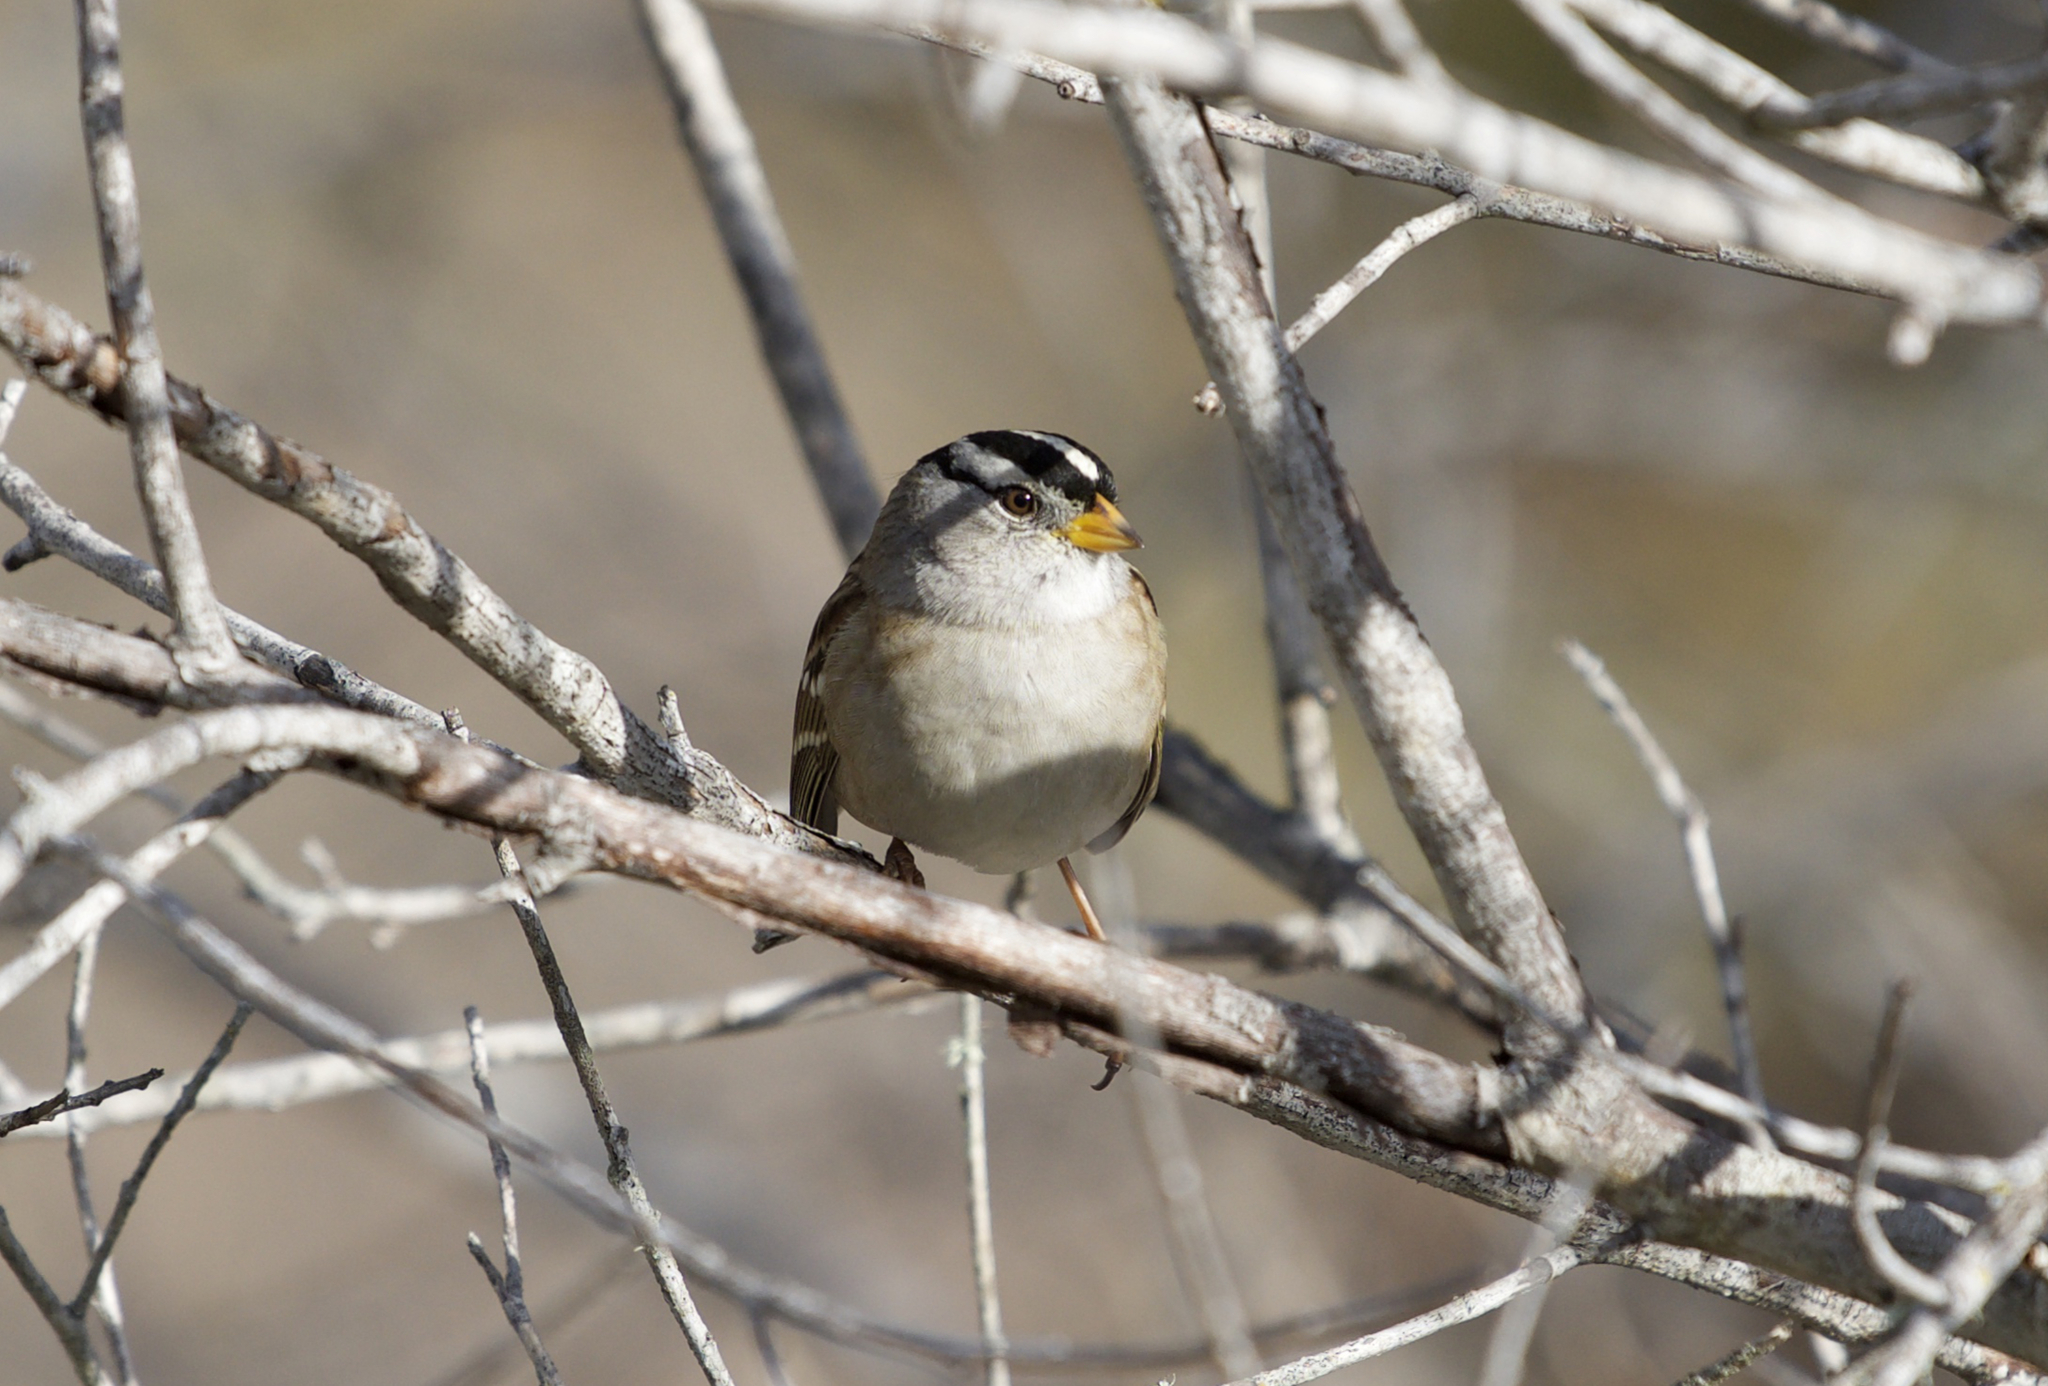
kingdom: Animalia
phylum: Chordata
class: Aves
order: Passeriformes
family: Passerellidae
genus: Zonotrichia
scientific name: Zonotrichia leucophrys
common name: White-crowned sparrow
